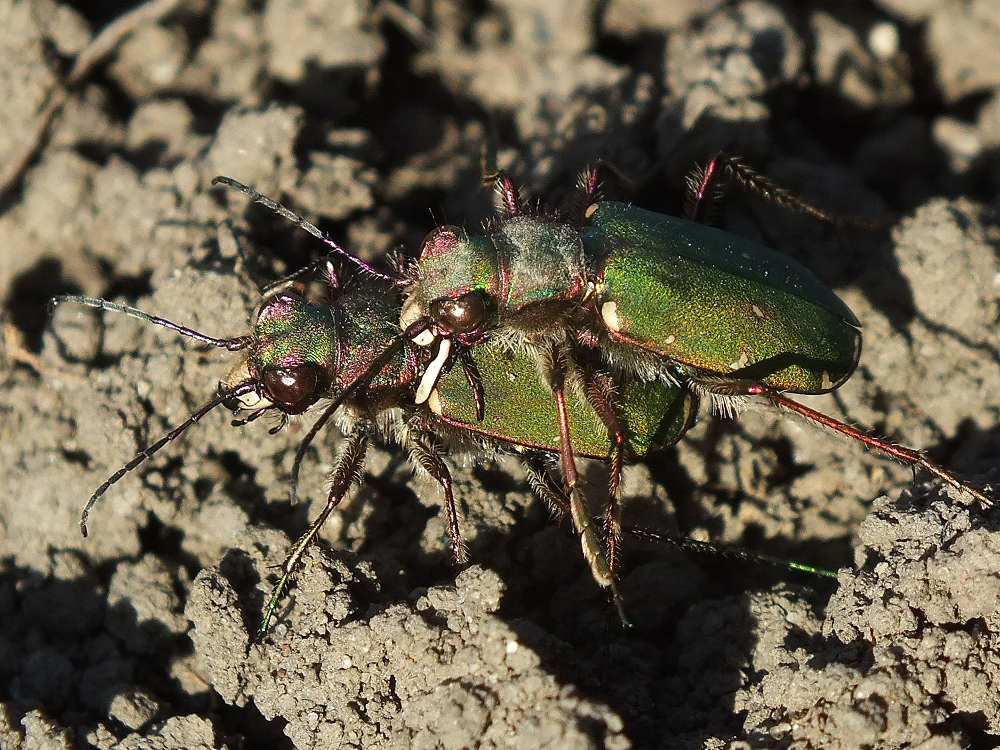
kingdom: Animalia
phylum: Arthropoda
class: Insecta
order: Coleoptera
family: Carabidae
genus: Cicindela
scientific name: Cicindela campestris
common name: Common tiger beetle
